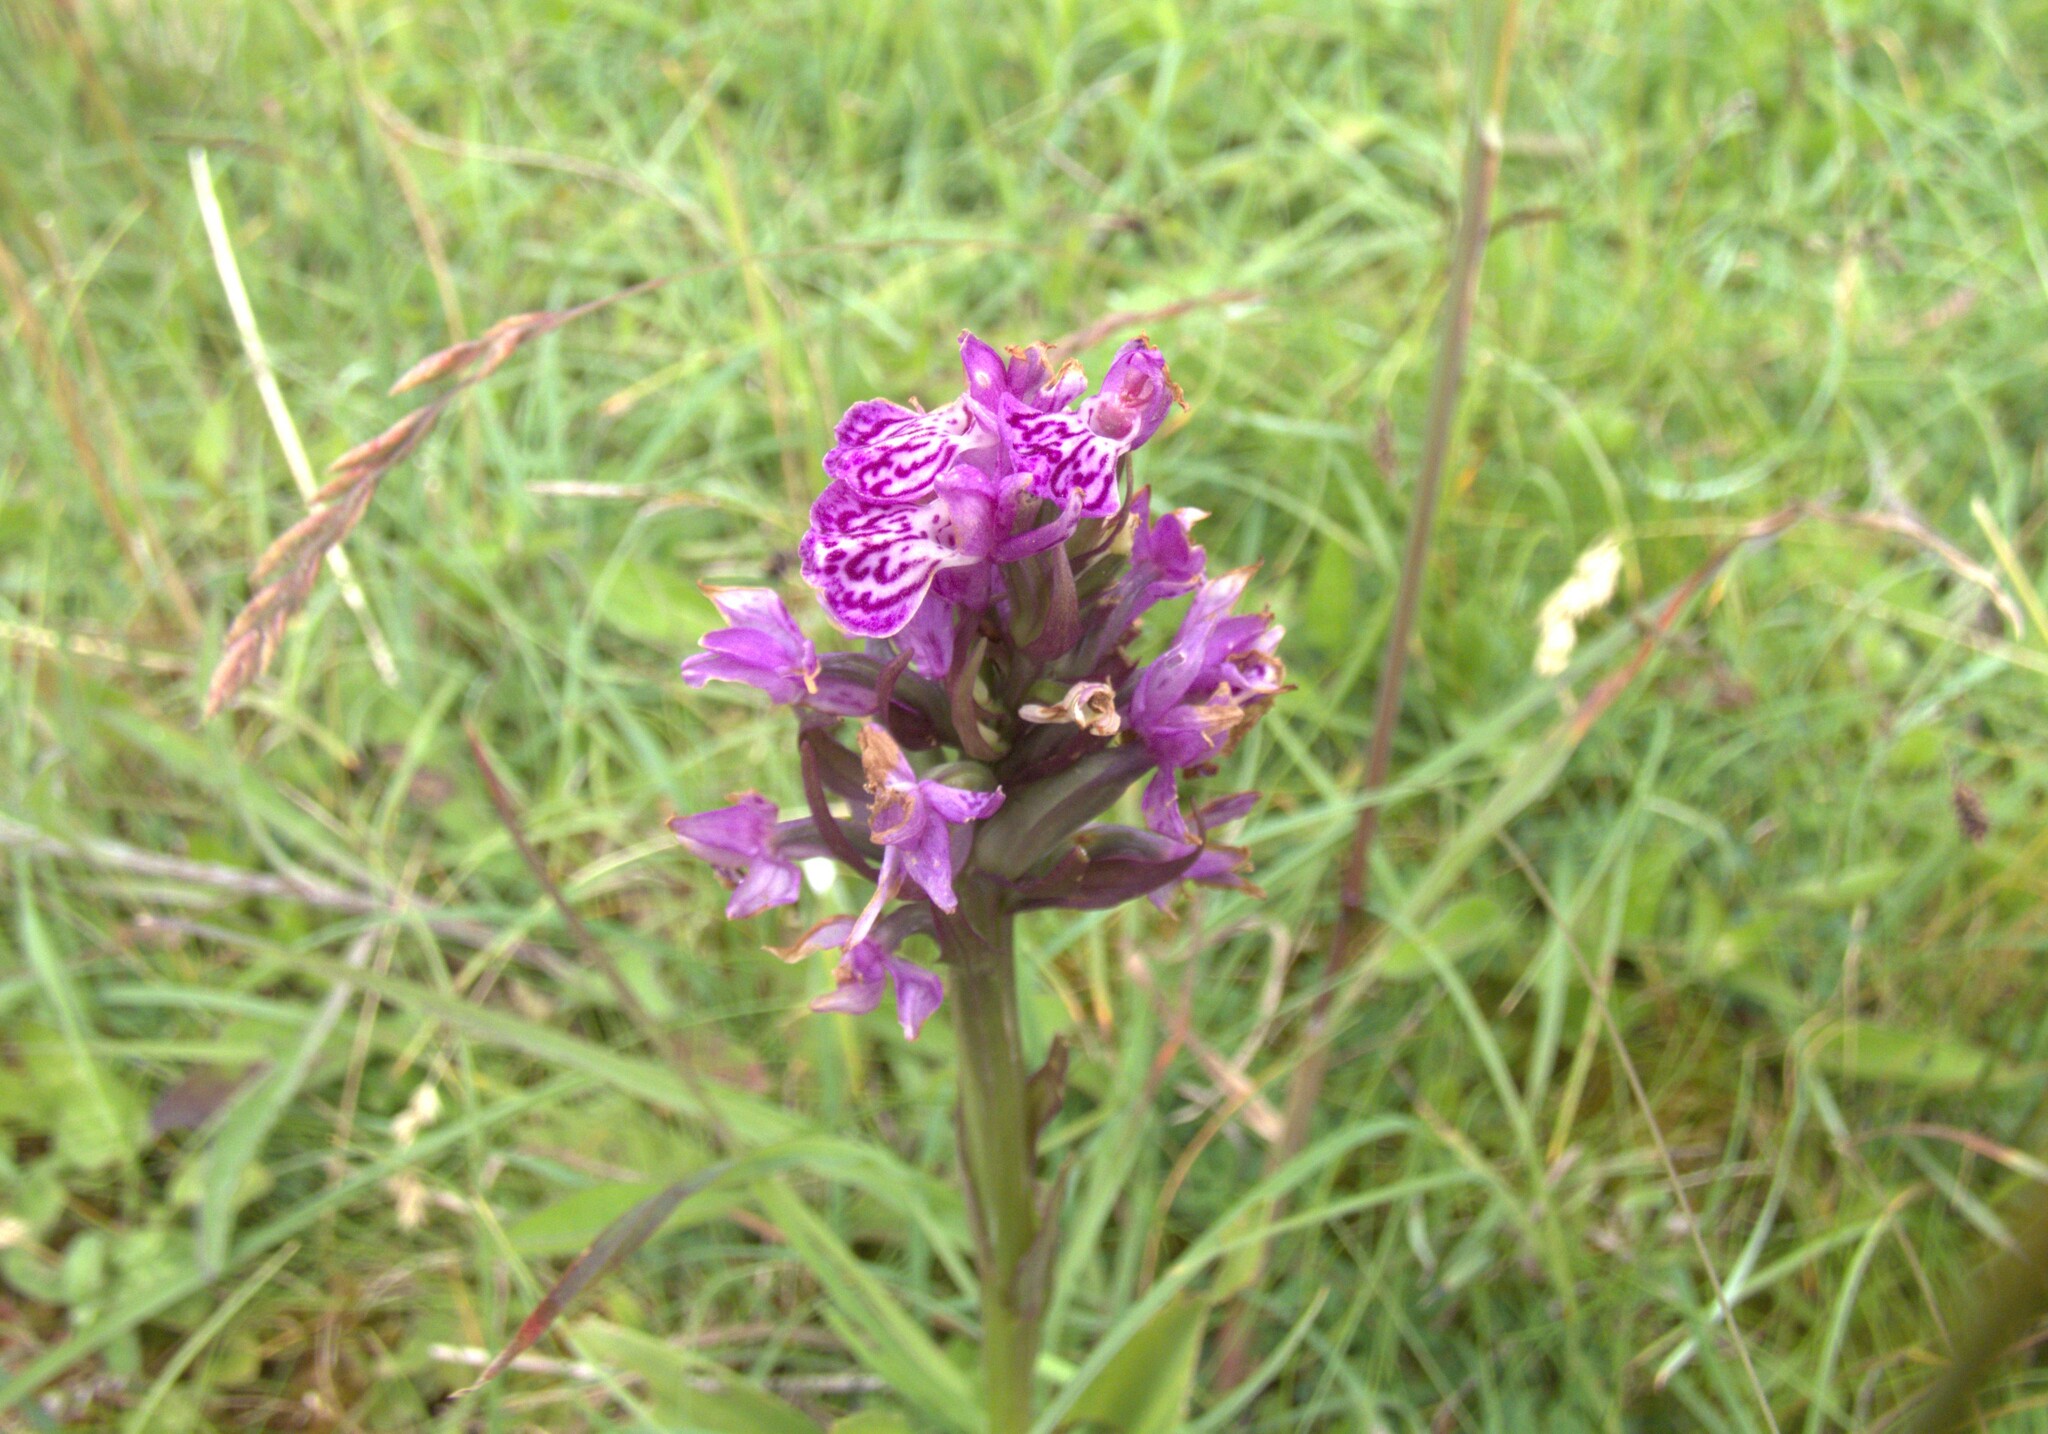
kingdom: Plantae
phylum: Tracheophyta
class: Liliopsida
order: Asparagales
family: Orchidaceae
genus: Dactylorhiza
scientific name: Dactylorhiza majalis
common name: Marsh orchid
